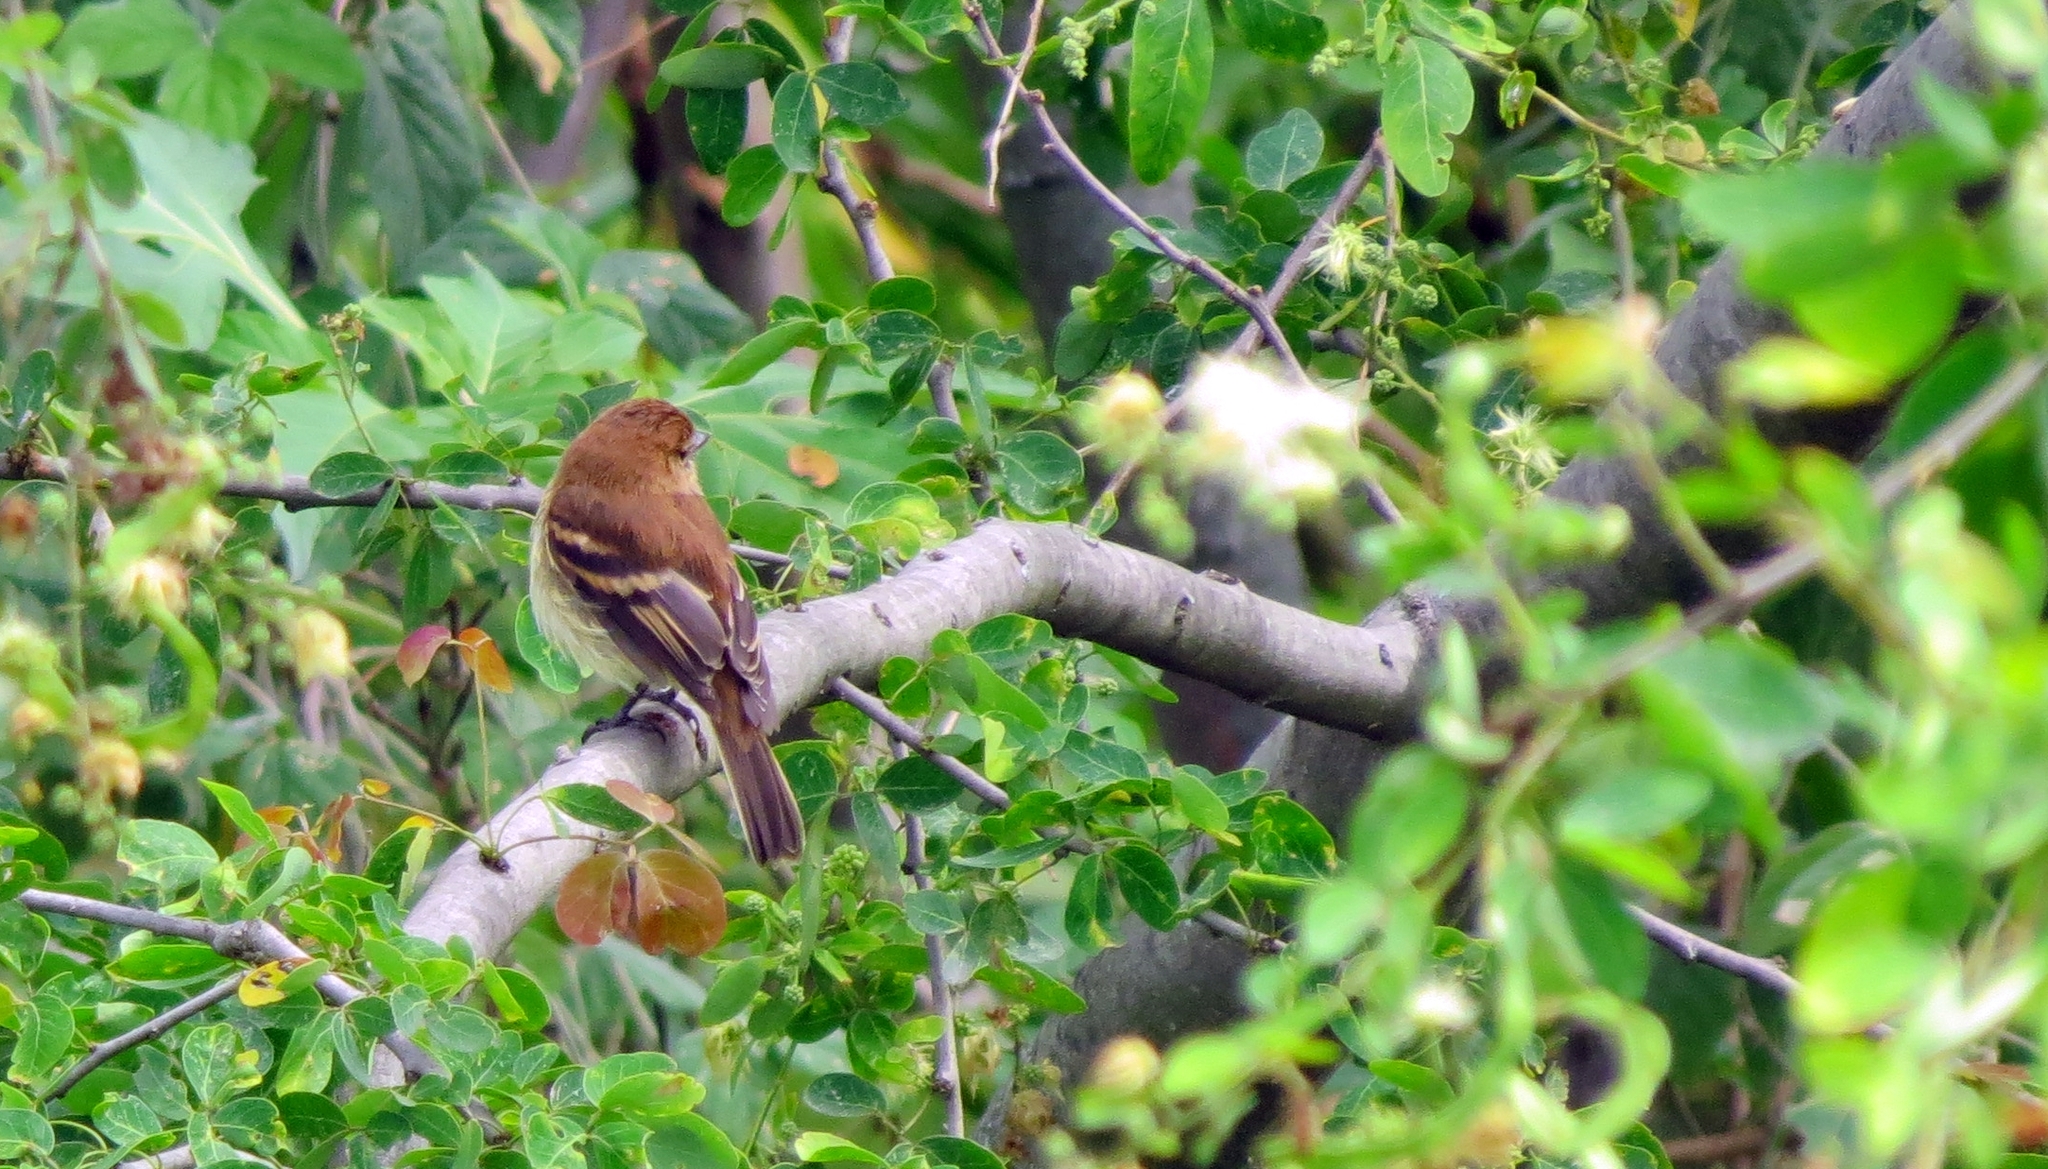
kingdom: Animalia
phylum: Chordata
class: Aves
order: Passeriformes
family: Tyrannidae
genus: Myiophobus
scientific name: Myiophobus fasciatus
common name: Bran-colored flycatcher
